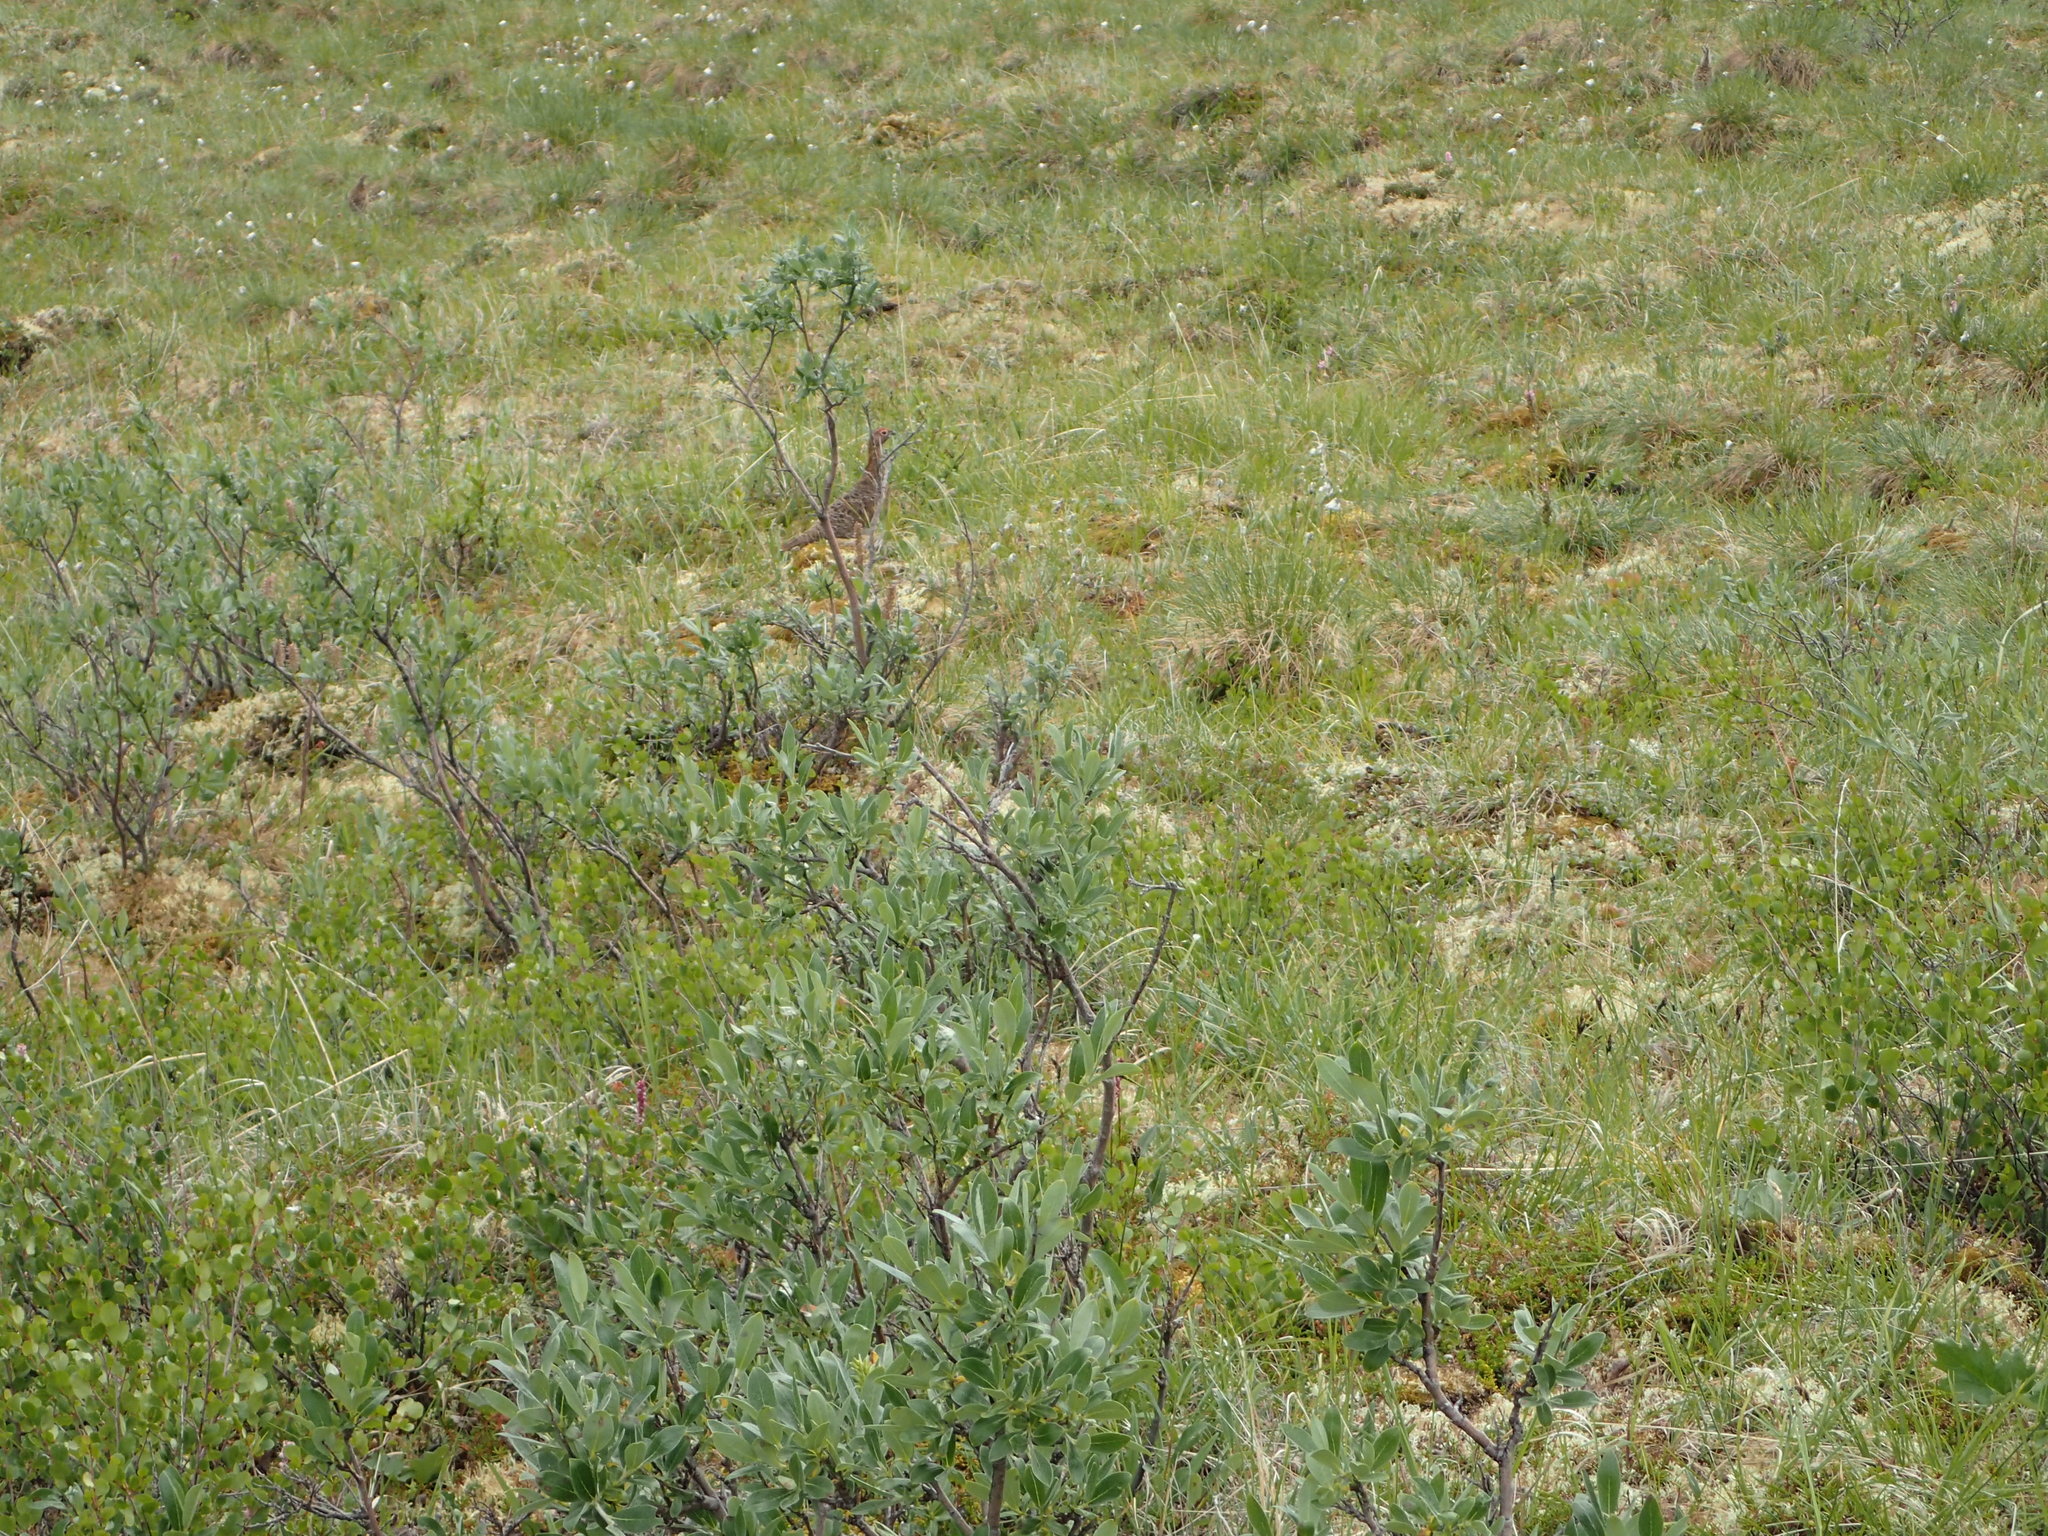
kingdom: Animalia
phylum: Chordata
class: Aves
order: Galliformes
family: Phasianidae
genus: Lagopus
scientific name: Lagopus lagopus
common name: Willow ptarmigan
